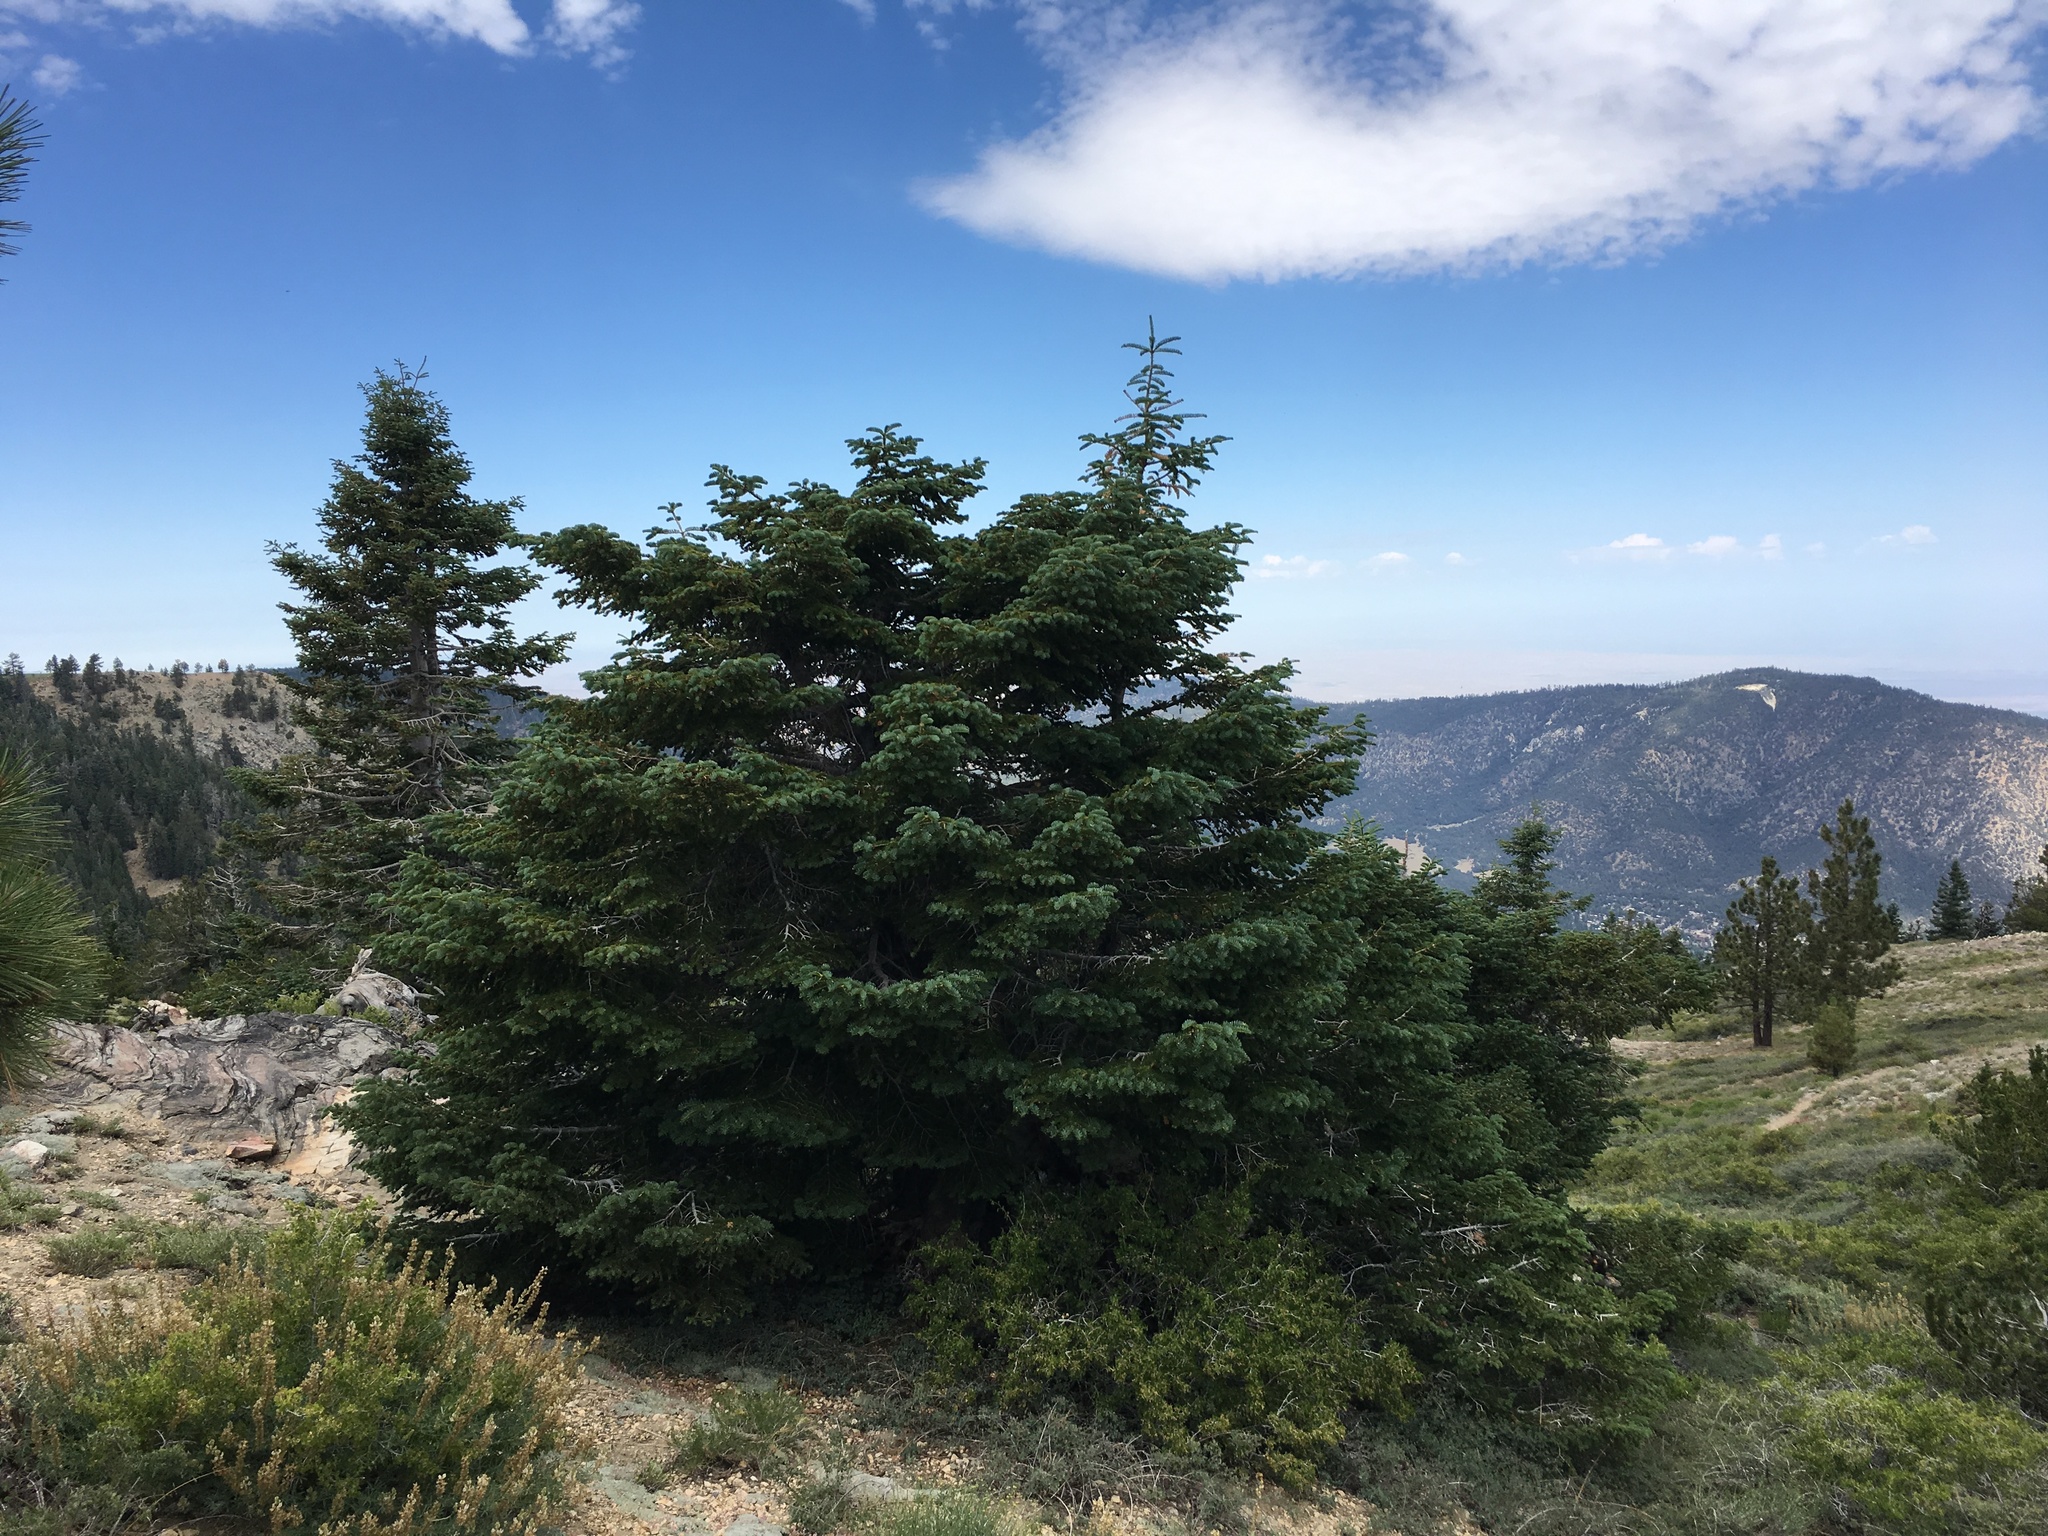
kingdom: Plantae
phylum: Tracheophyta
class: Pinopsida
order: Pinales
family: Pinaceae
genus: Abies
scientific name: Abies concolor
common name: Colorado fir
